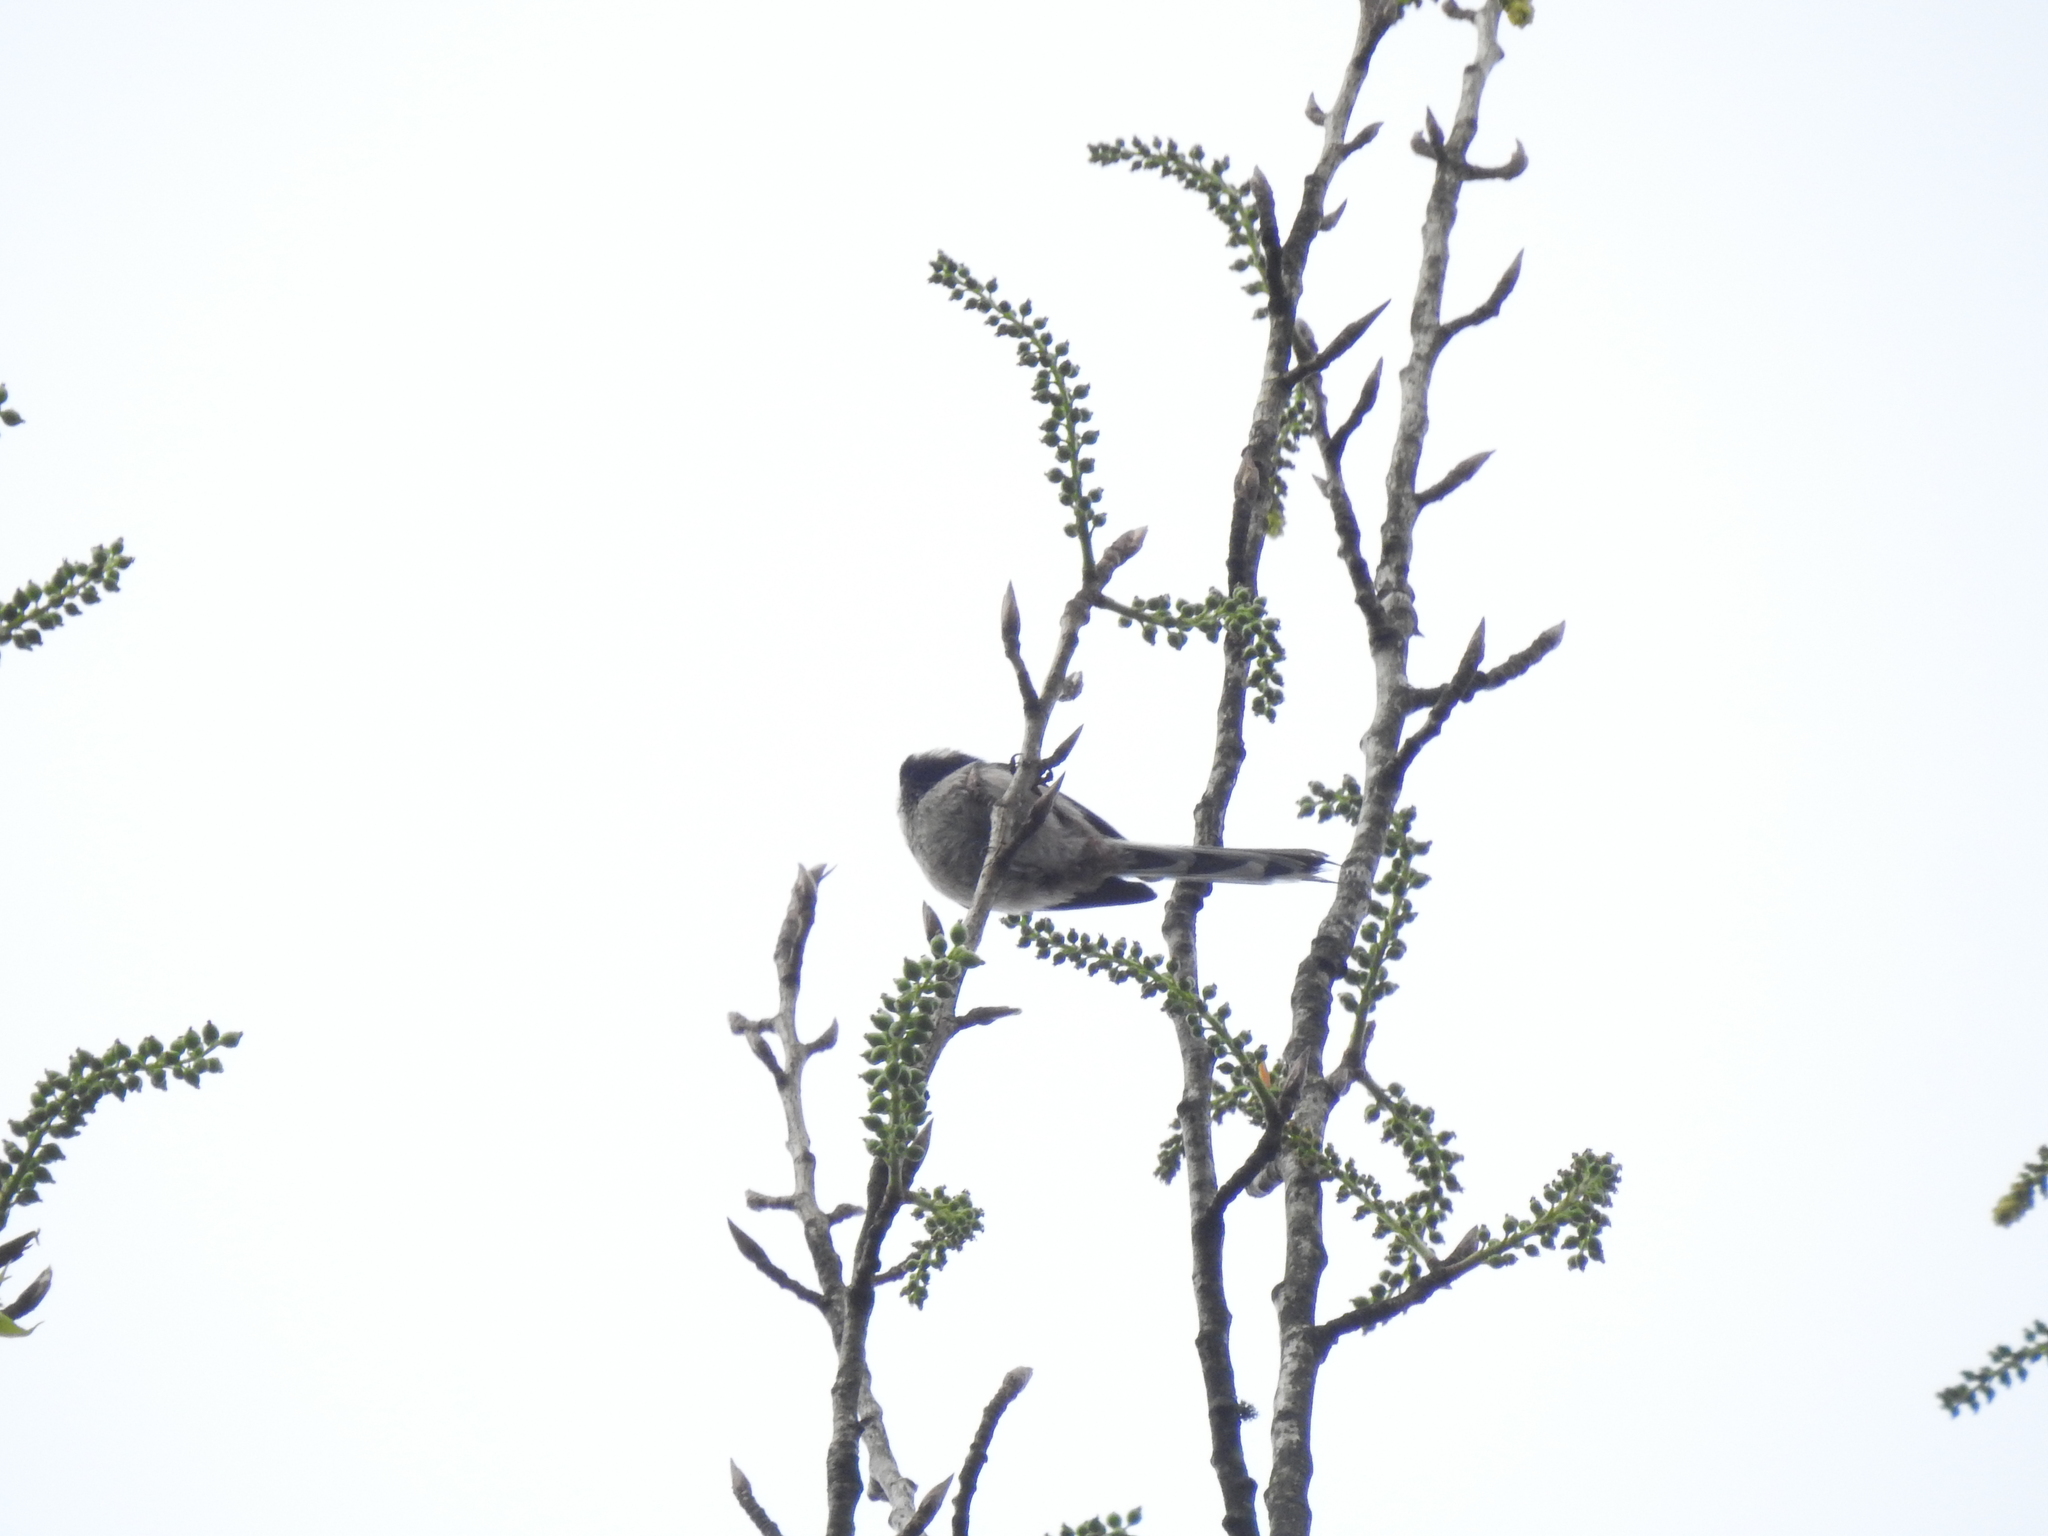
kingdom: Animalia
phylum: Chordata
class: Aves
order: Passeriformes
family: Aegithalidae
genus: Aegithalos
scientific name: Aegithalos caudatus
